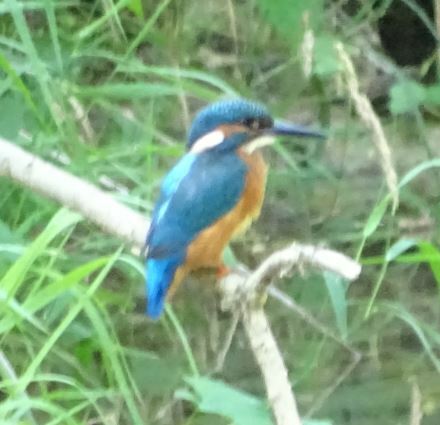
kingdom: Animalia
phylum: Chordata
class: Aves
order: Coraciiformes
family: Alcedinidae
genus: Alcedo
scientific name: Alcedo atthis
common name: Common kingfisher
